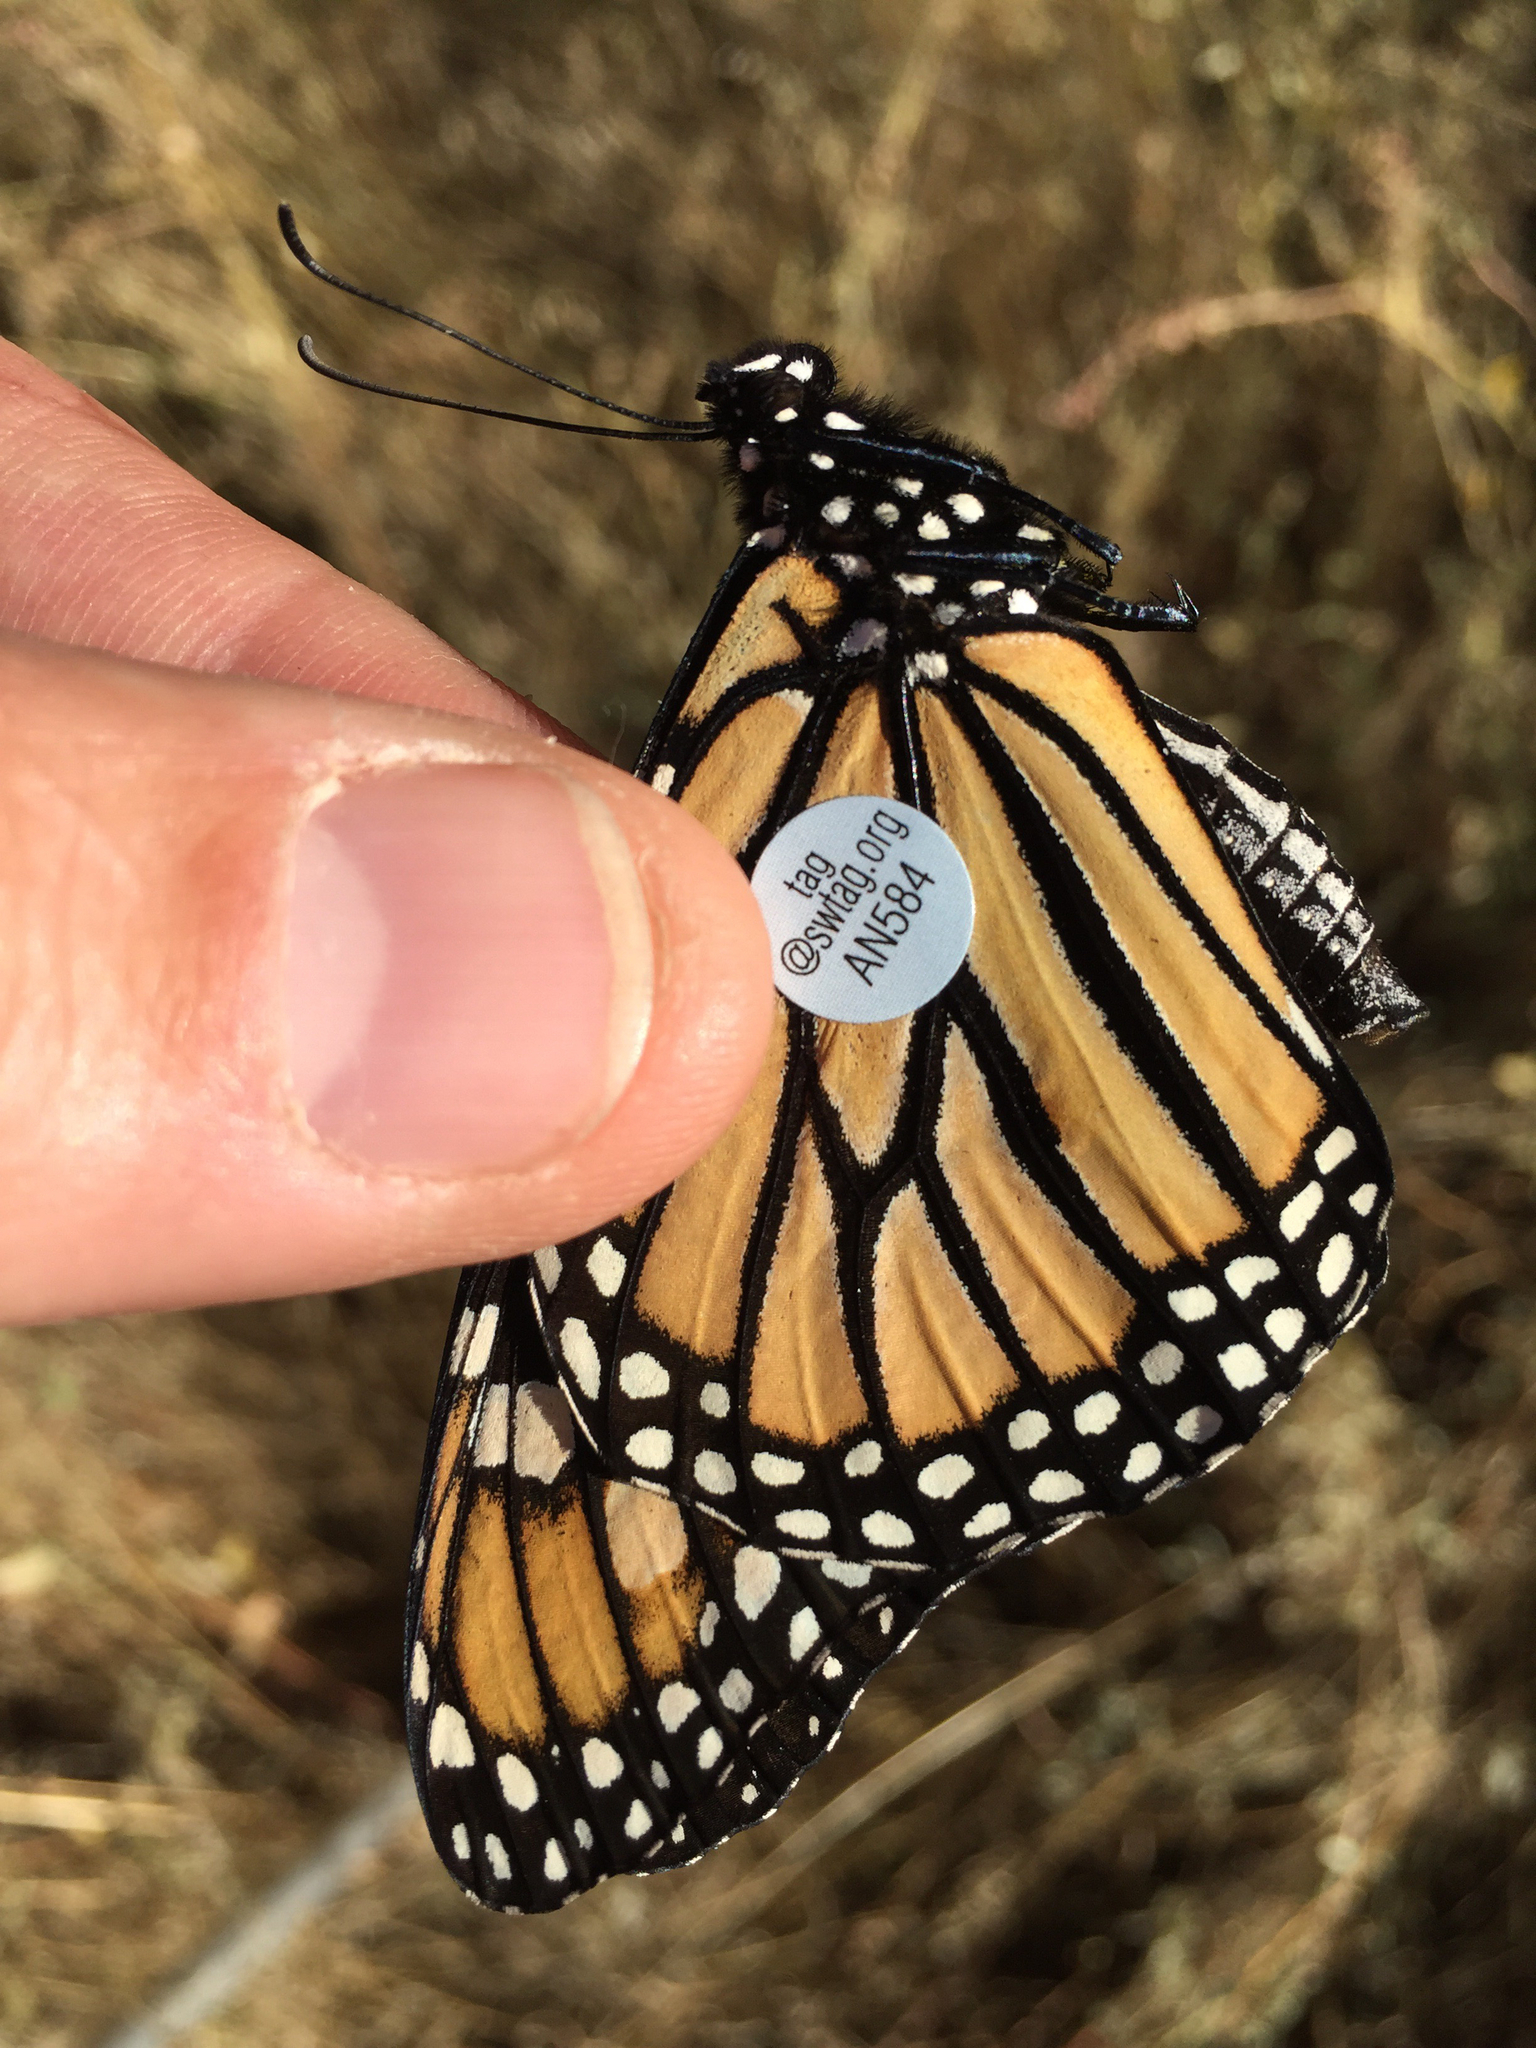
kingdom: Animalia
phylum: Arthropoda
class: Insecta
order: Lepidoptera
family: Nymphalidae
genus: Danaus
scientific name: Danaus plexippus
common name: Monarch
